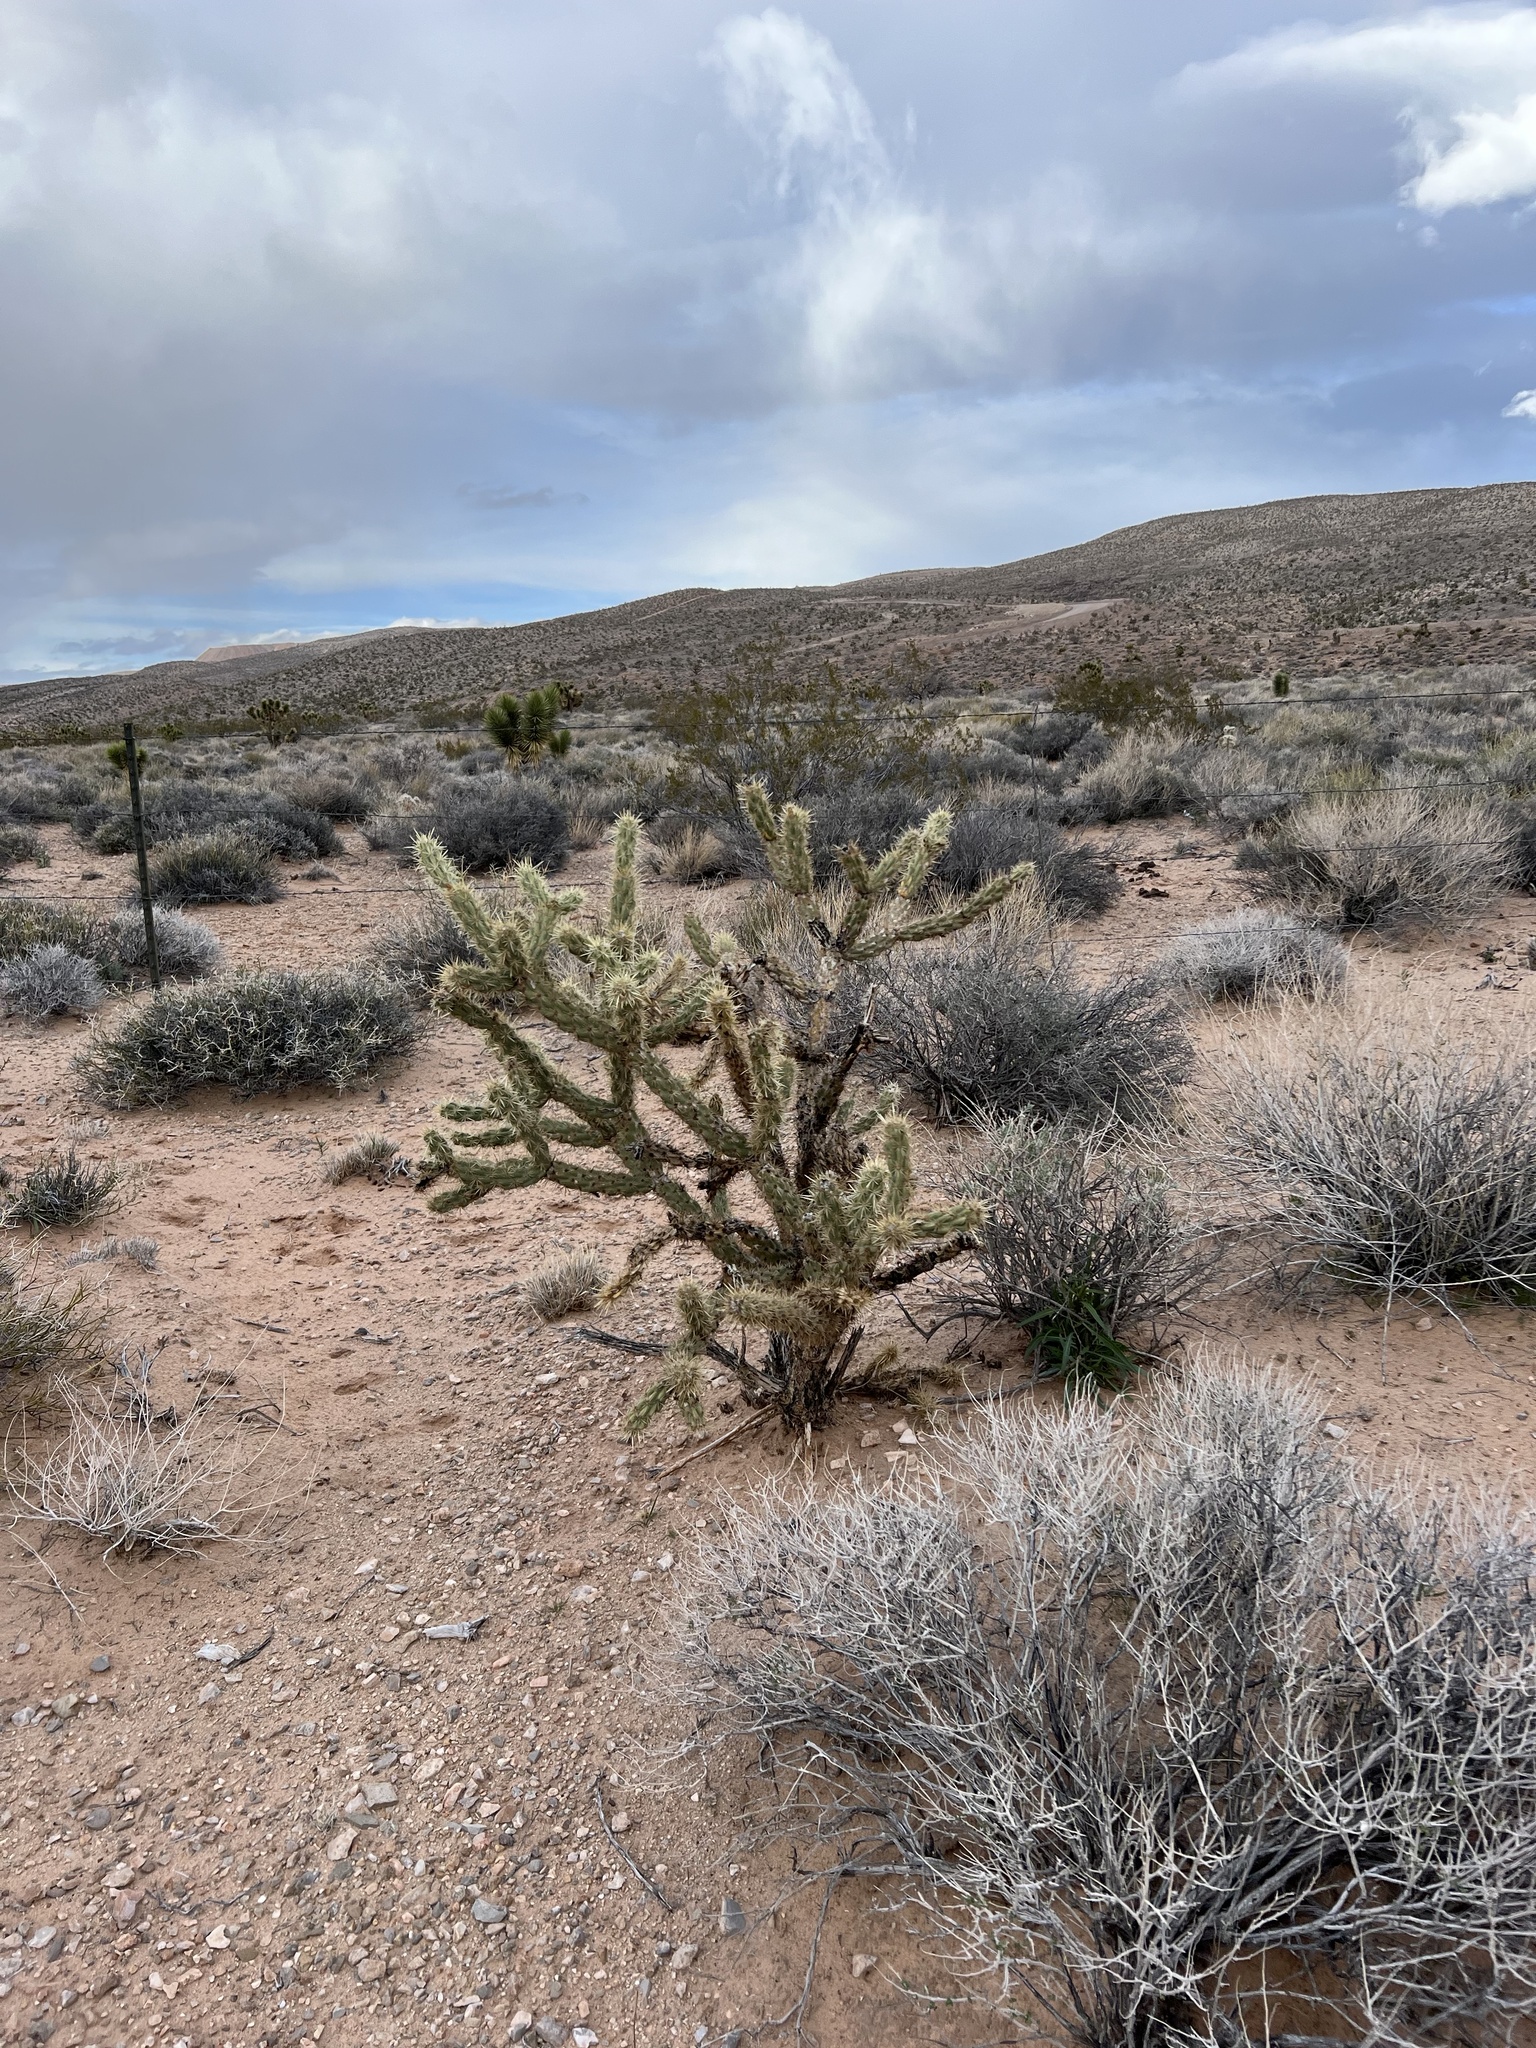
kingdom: Plantae
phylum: Tracheophyta
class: Magnoliopsida
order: Caryophyllales
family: Cactaceae
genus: Cylindropuntia
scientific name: Cylindropuntia acanthocarpa
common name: Buckhorn cholla
